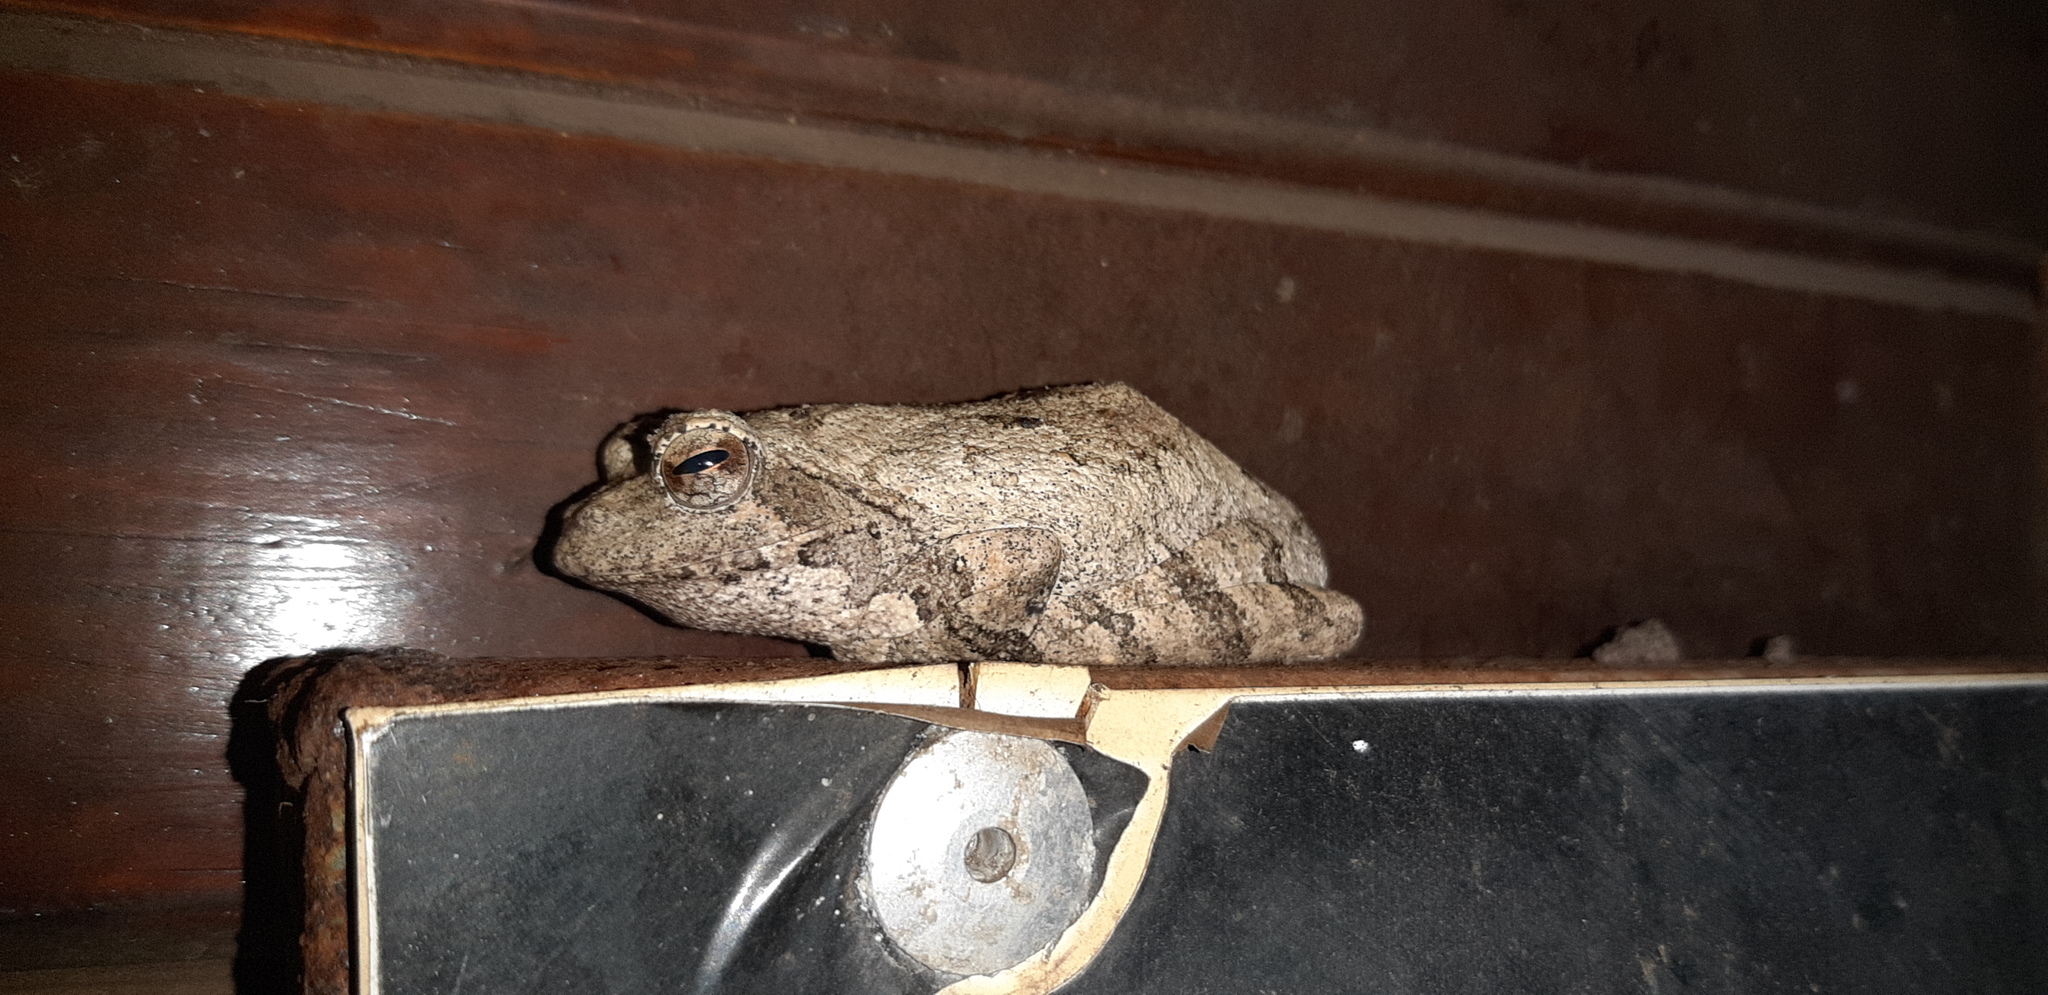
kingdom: Animalia
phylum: Chordata
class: Amphibia
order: Anura
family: Rhacophoridae
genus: Chiromantis
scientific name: Chiromantis xerampelina
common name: African gray treefrog
